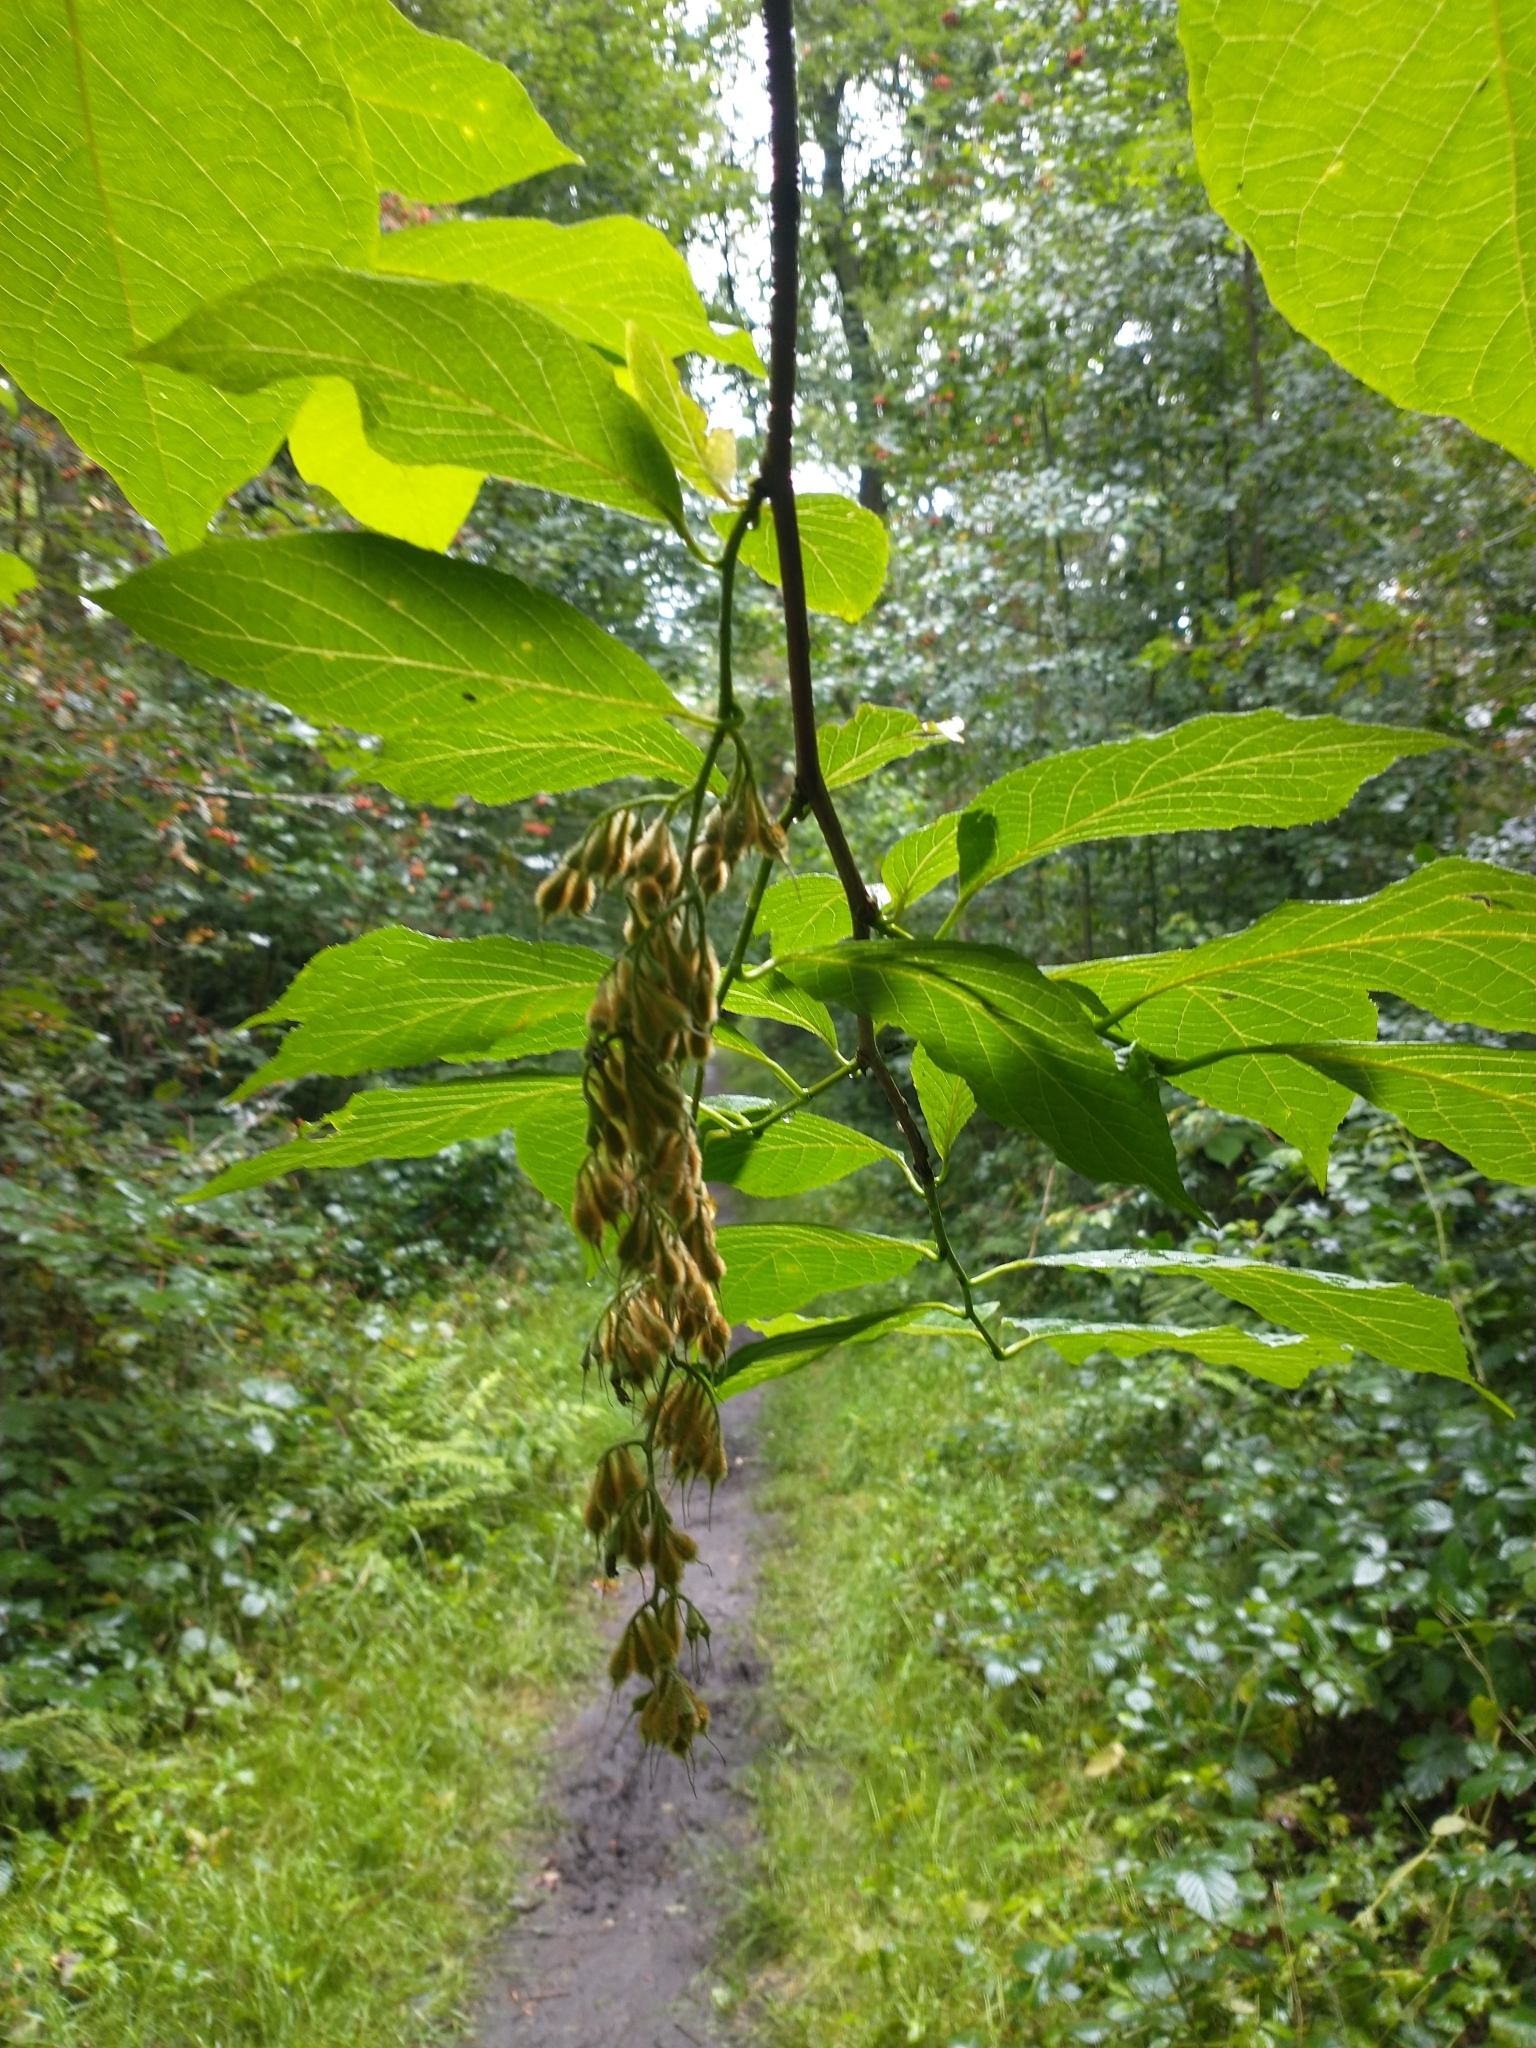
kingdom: Plantae
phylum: Tracheophyta
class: Magnoliopsida
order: Ericales
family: Styracaceae
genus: Pterostyrax
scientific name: Pterostyrax hispidus
